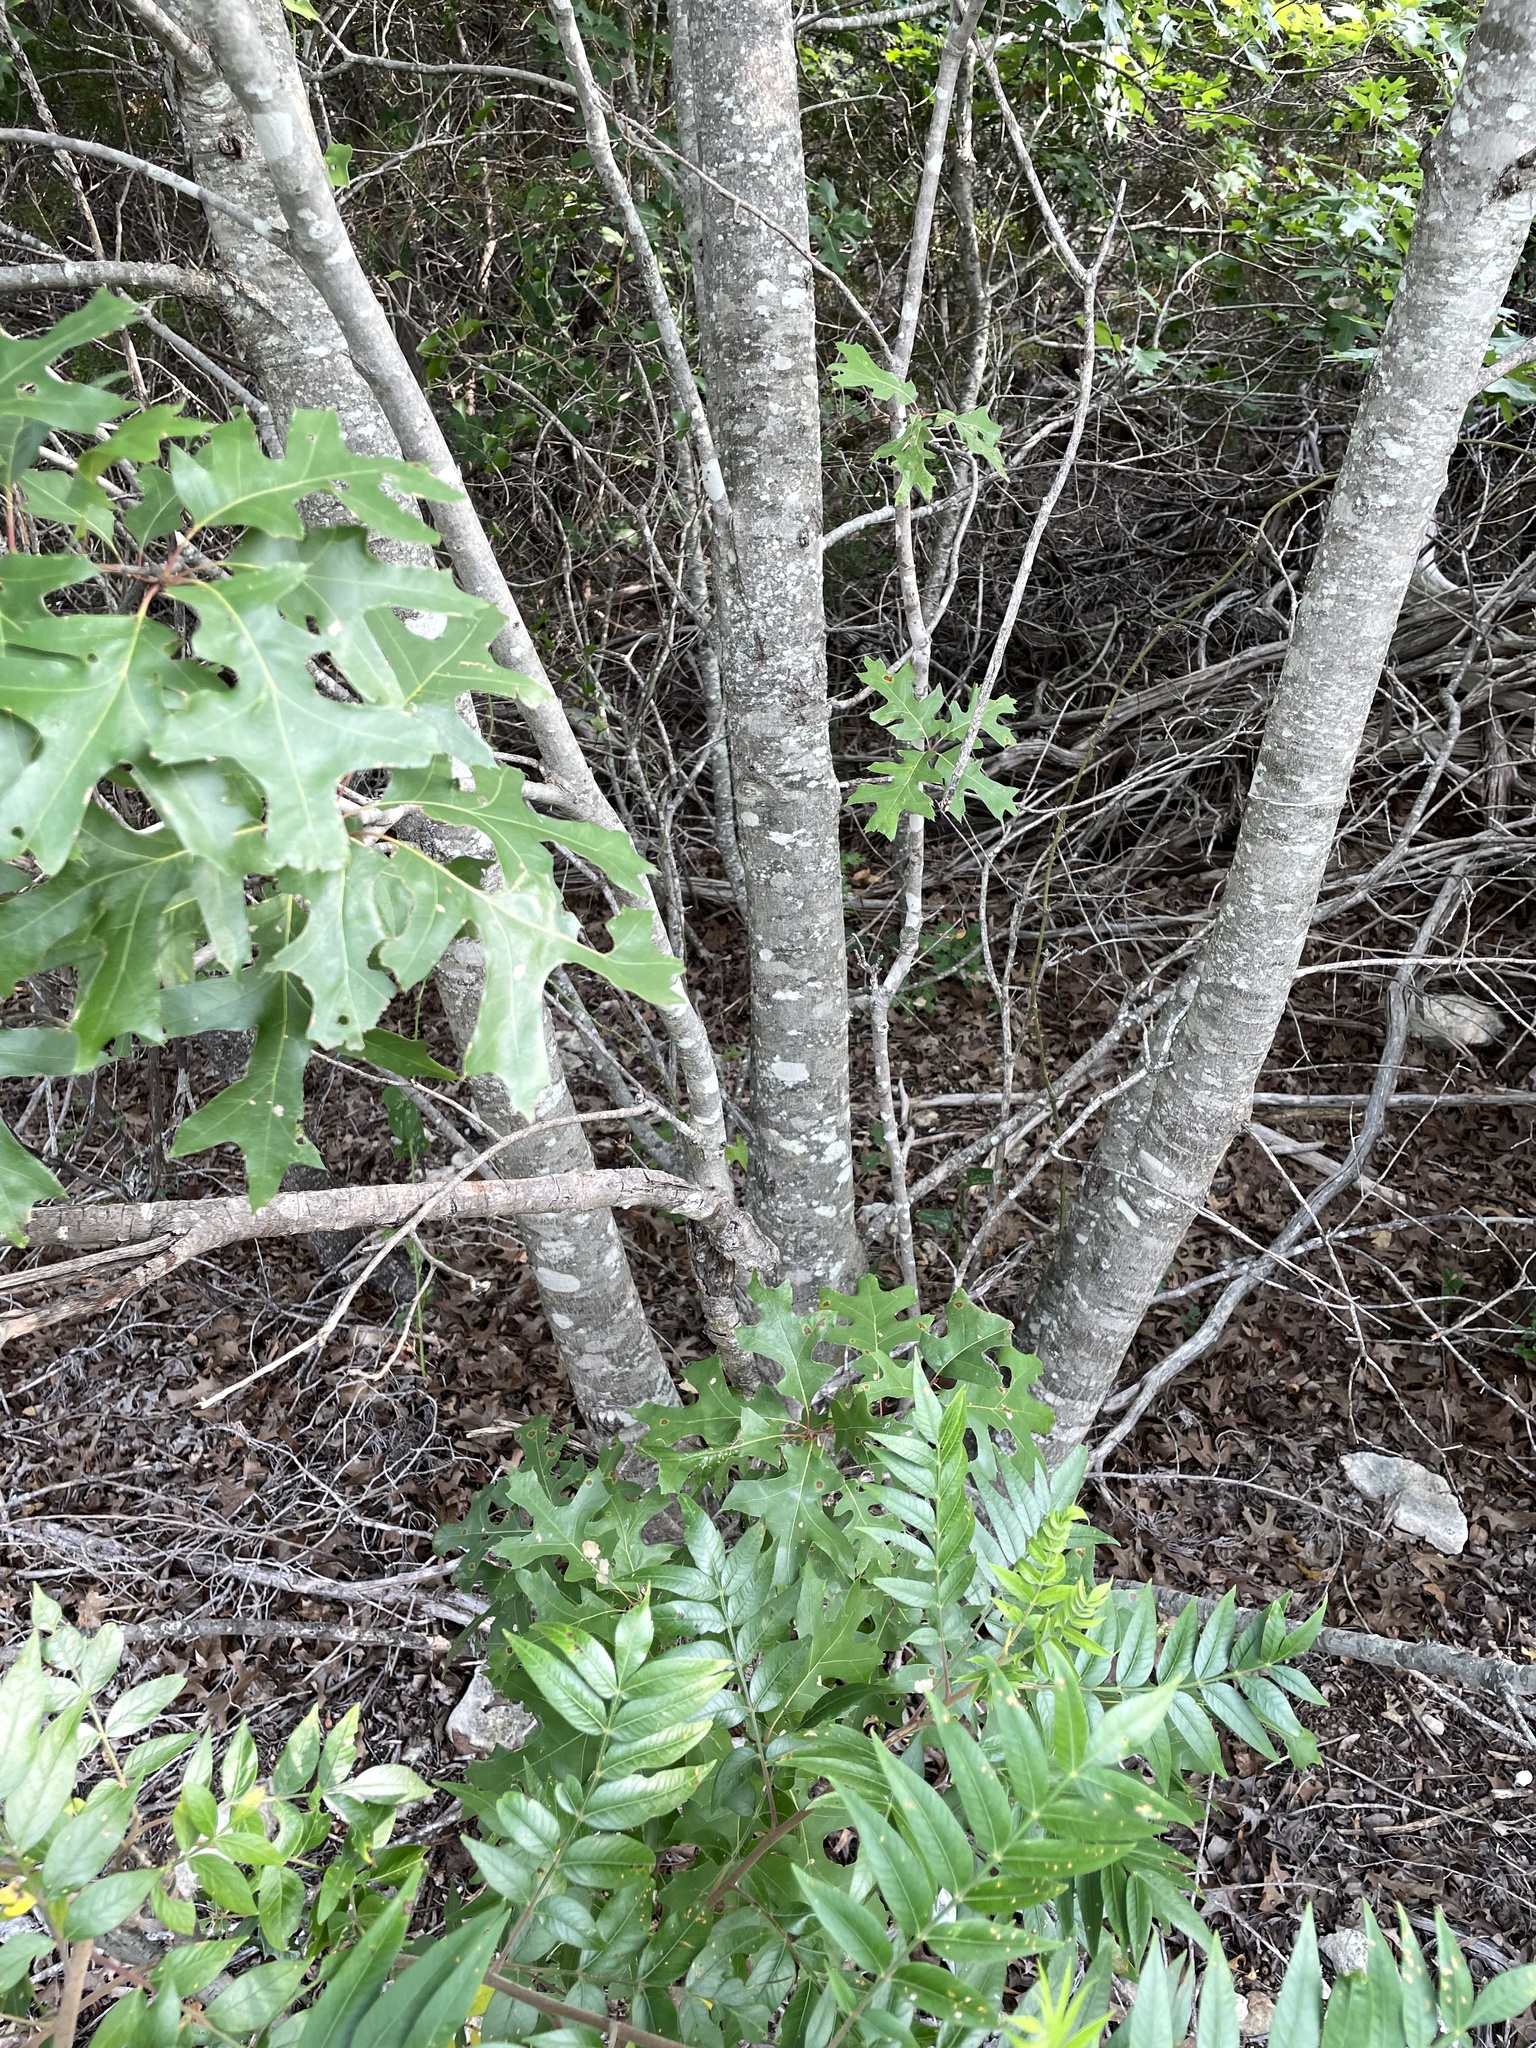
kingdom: Plantae
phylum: Tracheophyta
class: Magnoliopsida
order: Fagales
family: Fagaceae
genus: Quercus
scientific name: Quercus buckleyi
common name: Buckley oak
